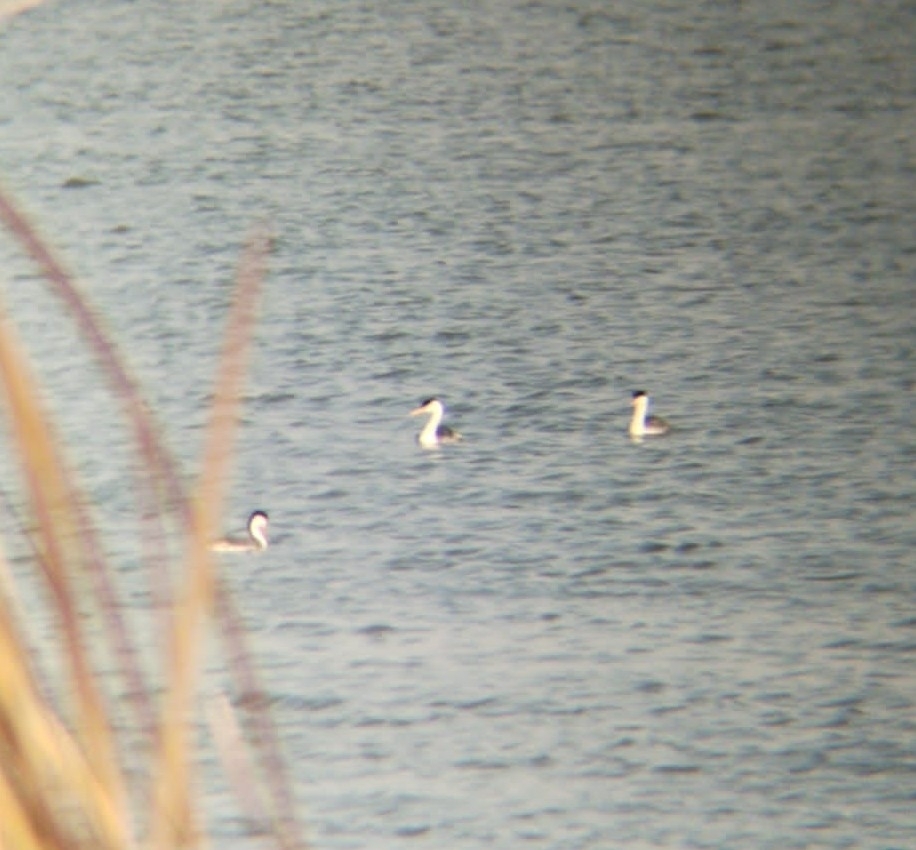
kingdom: Animalia
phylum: Chordata
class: Aves
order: Podicipediformes
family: Podicipedidae
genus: Aechmophorus
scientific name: Aechmophorus clarkii
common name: Clark's grebe
